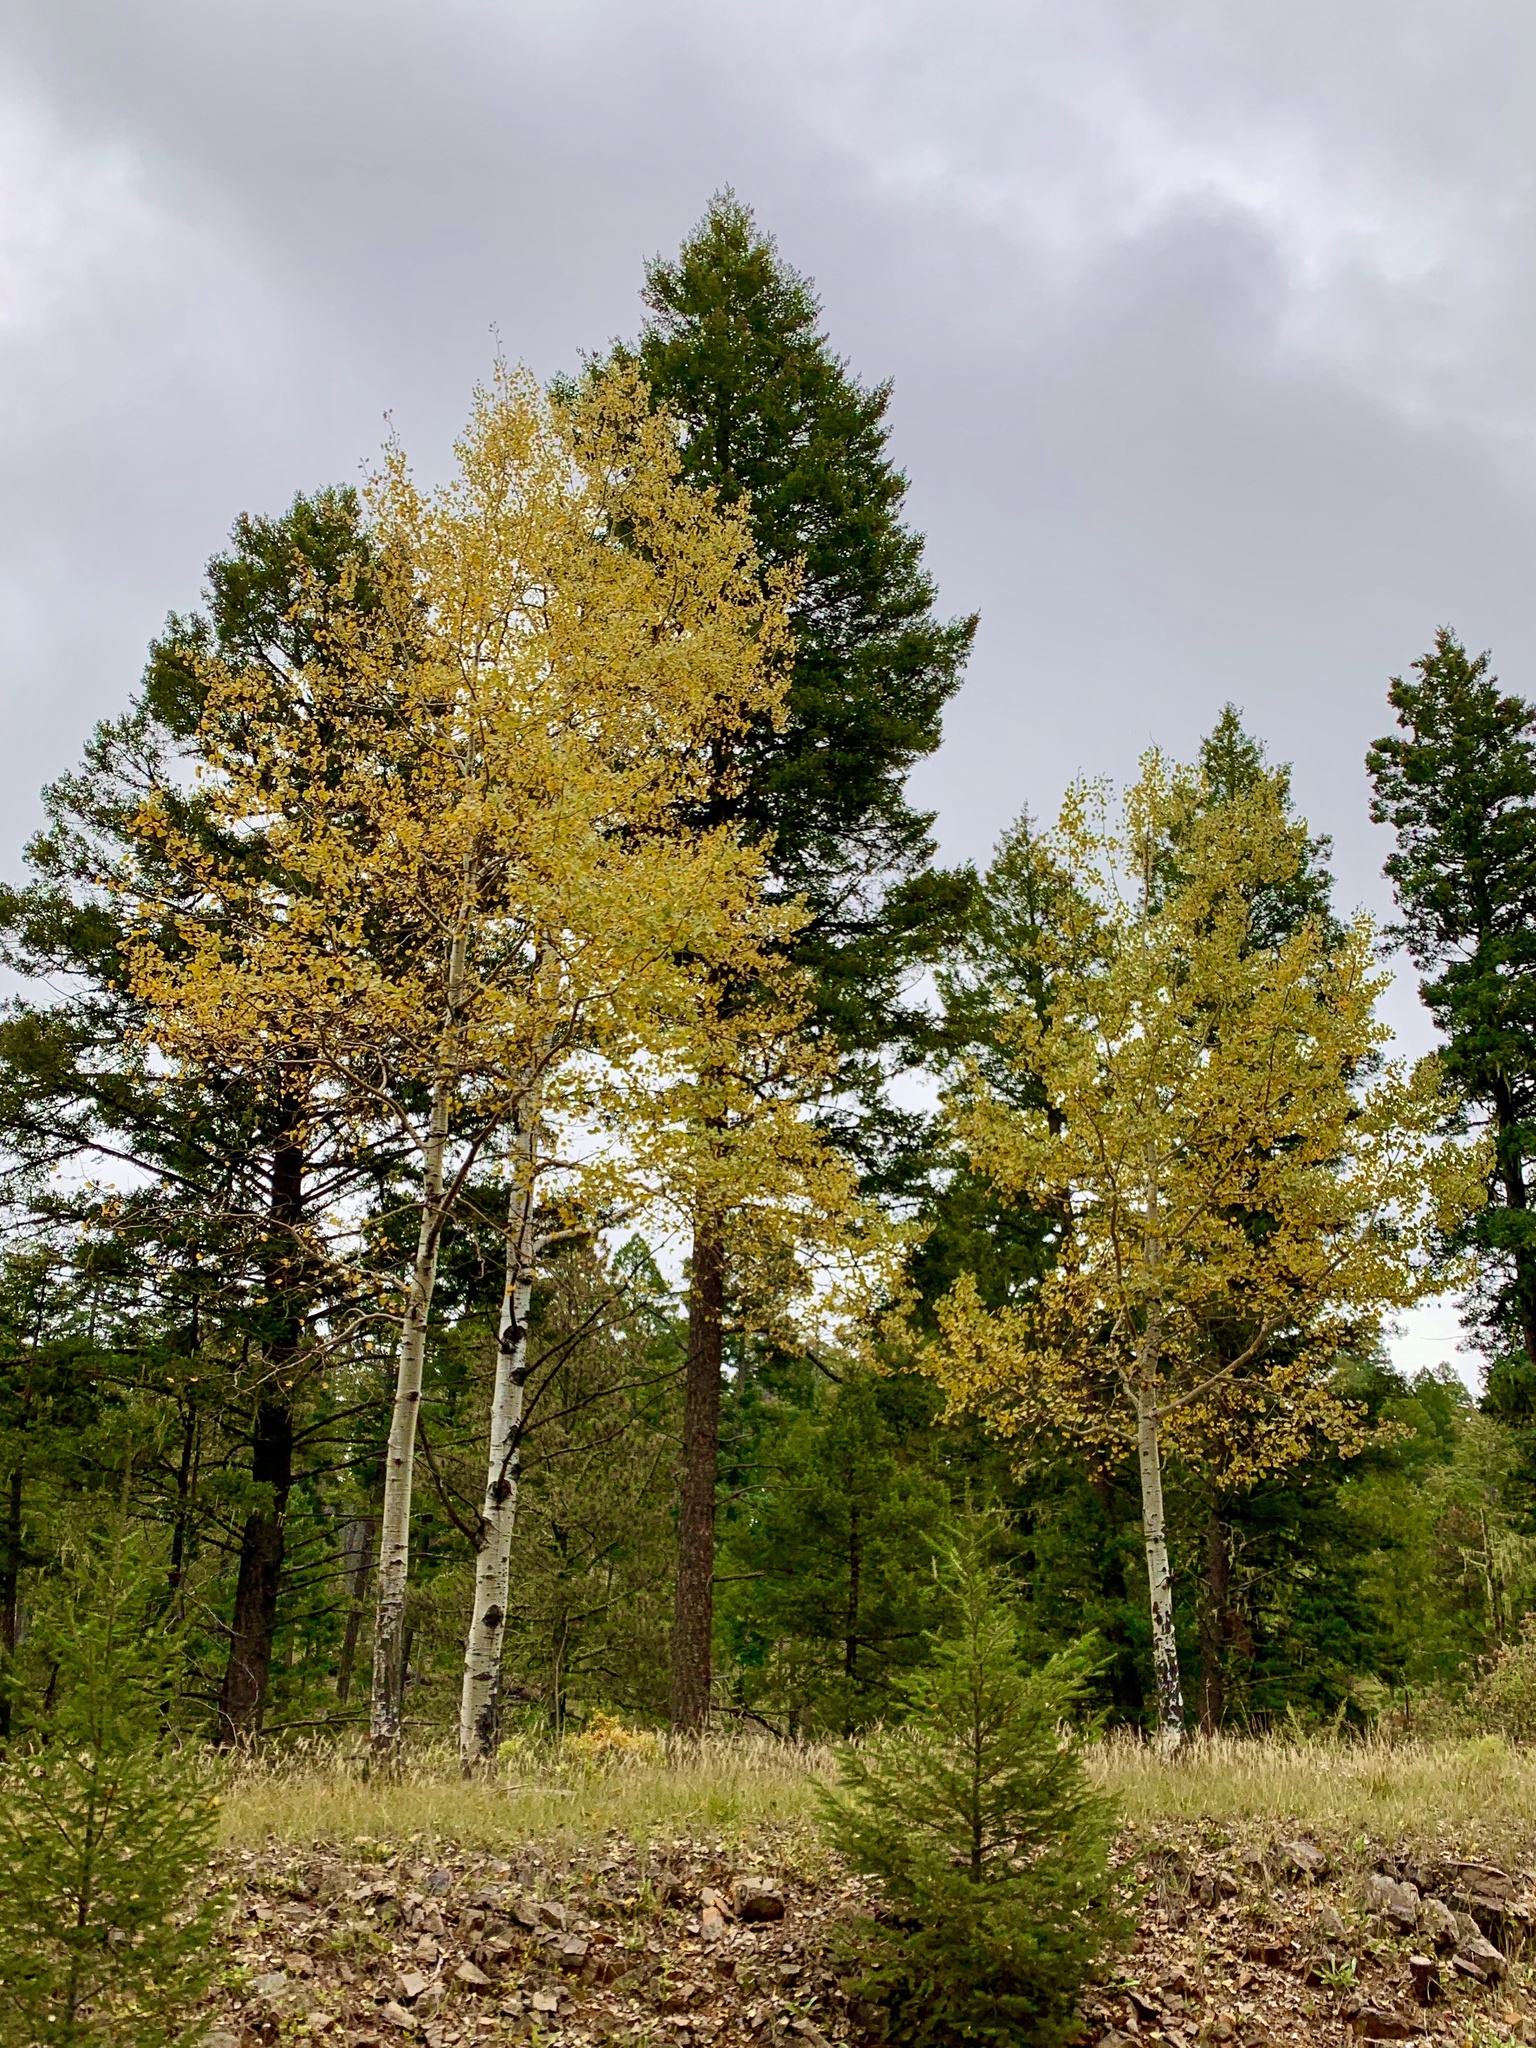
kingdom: Plantae
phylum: Tracheophyta
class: Magnoliopsida
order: Malpighiales
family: Salicaceae
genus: Populus
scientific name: Populus tremuloides
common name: Quaking aspen
